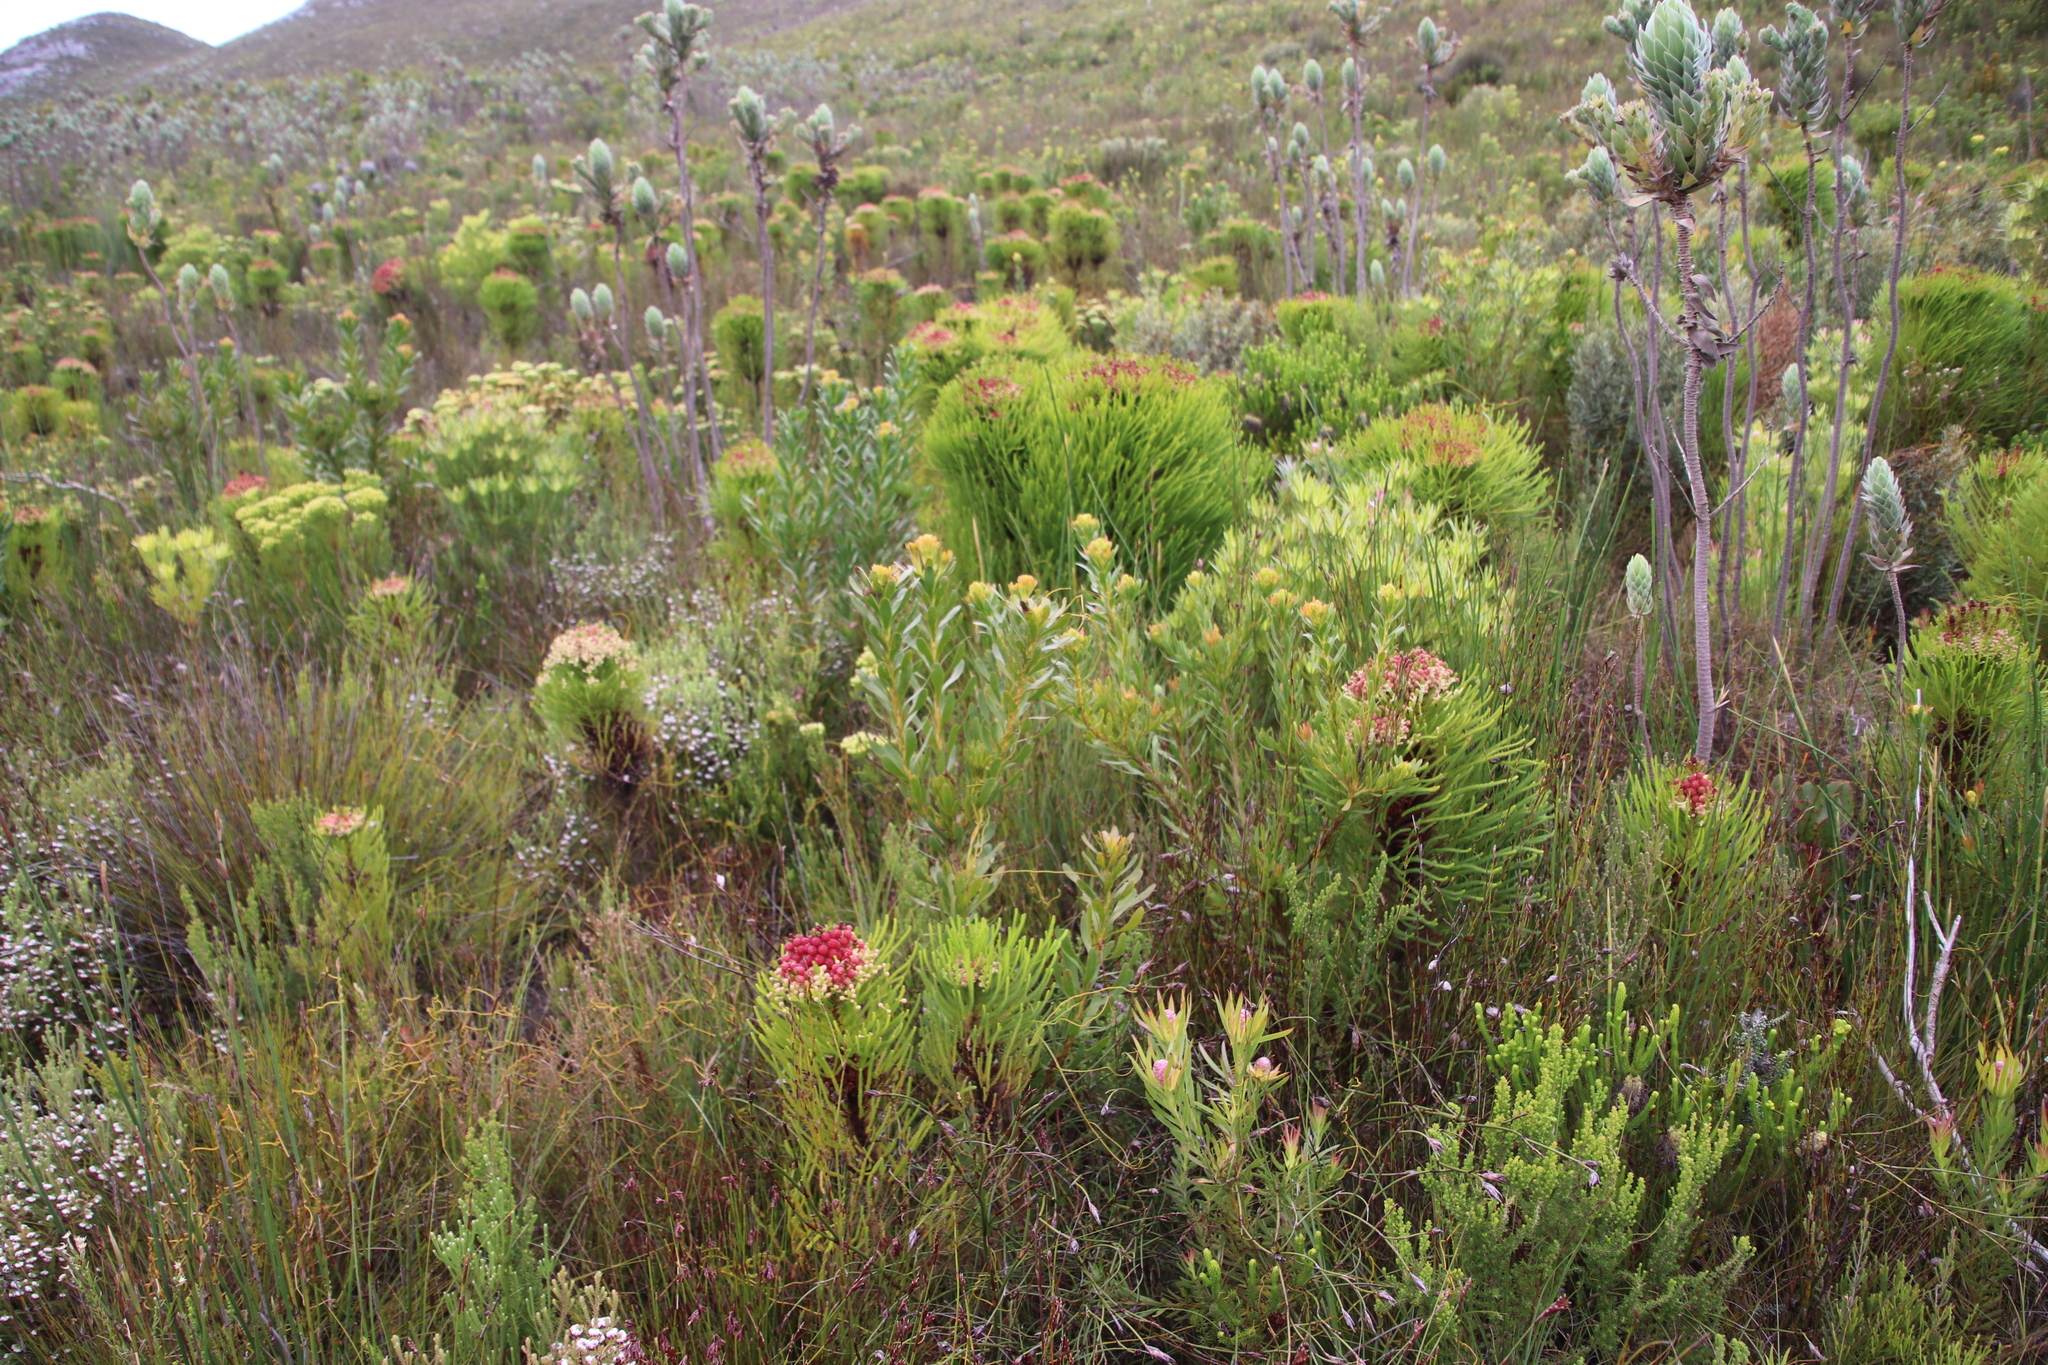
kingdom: Plantae
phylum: Tracheophyta
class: Magnoliopsida
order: Proteales
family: Proteaceae
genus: Aulax
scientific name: Aulax umbellata
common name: Broad-leaf featherbush
